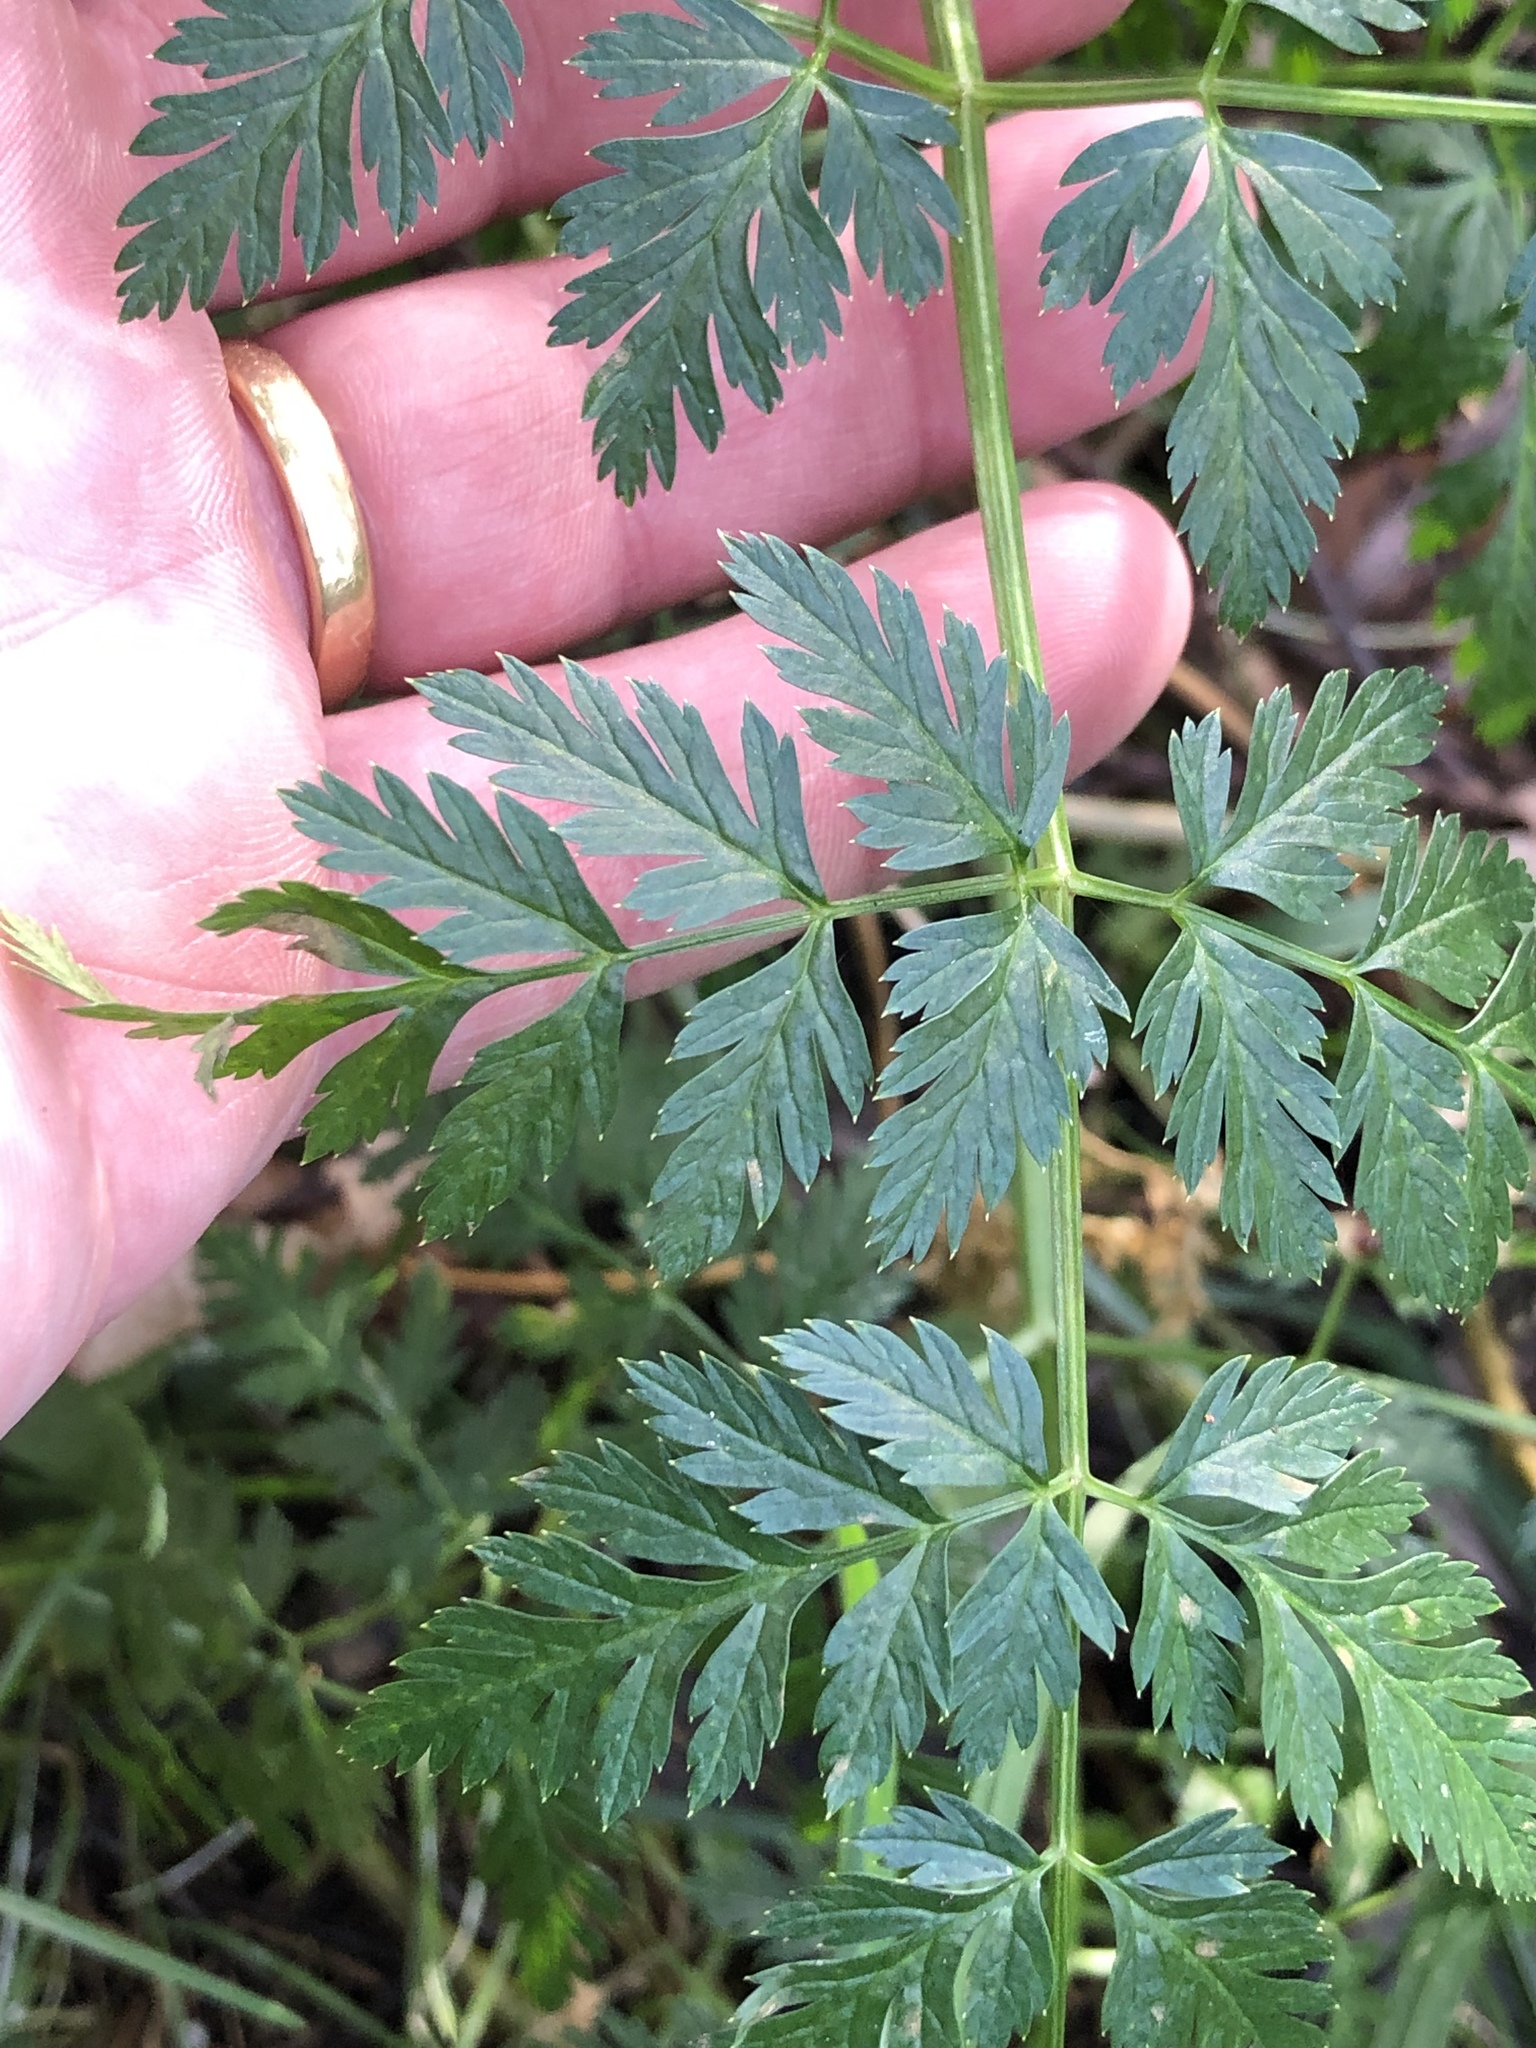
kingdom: Plantae
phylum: Tracheophyta
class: Magnoliopsida
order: Apiales
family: Apiaceae
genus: Conium
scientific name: Conium maculatum
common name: Hemlock
